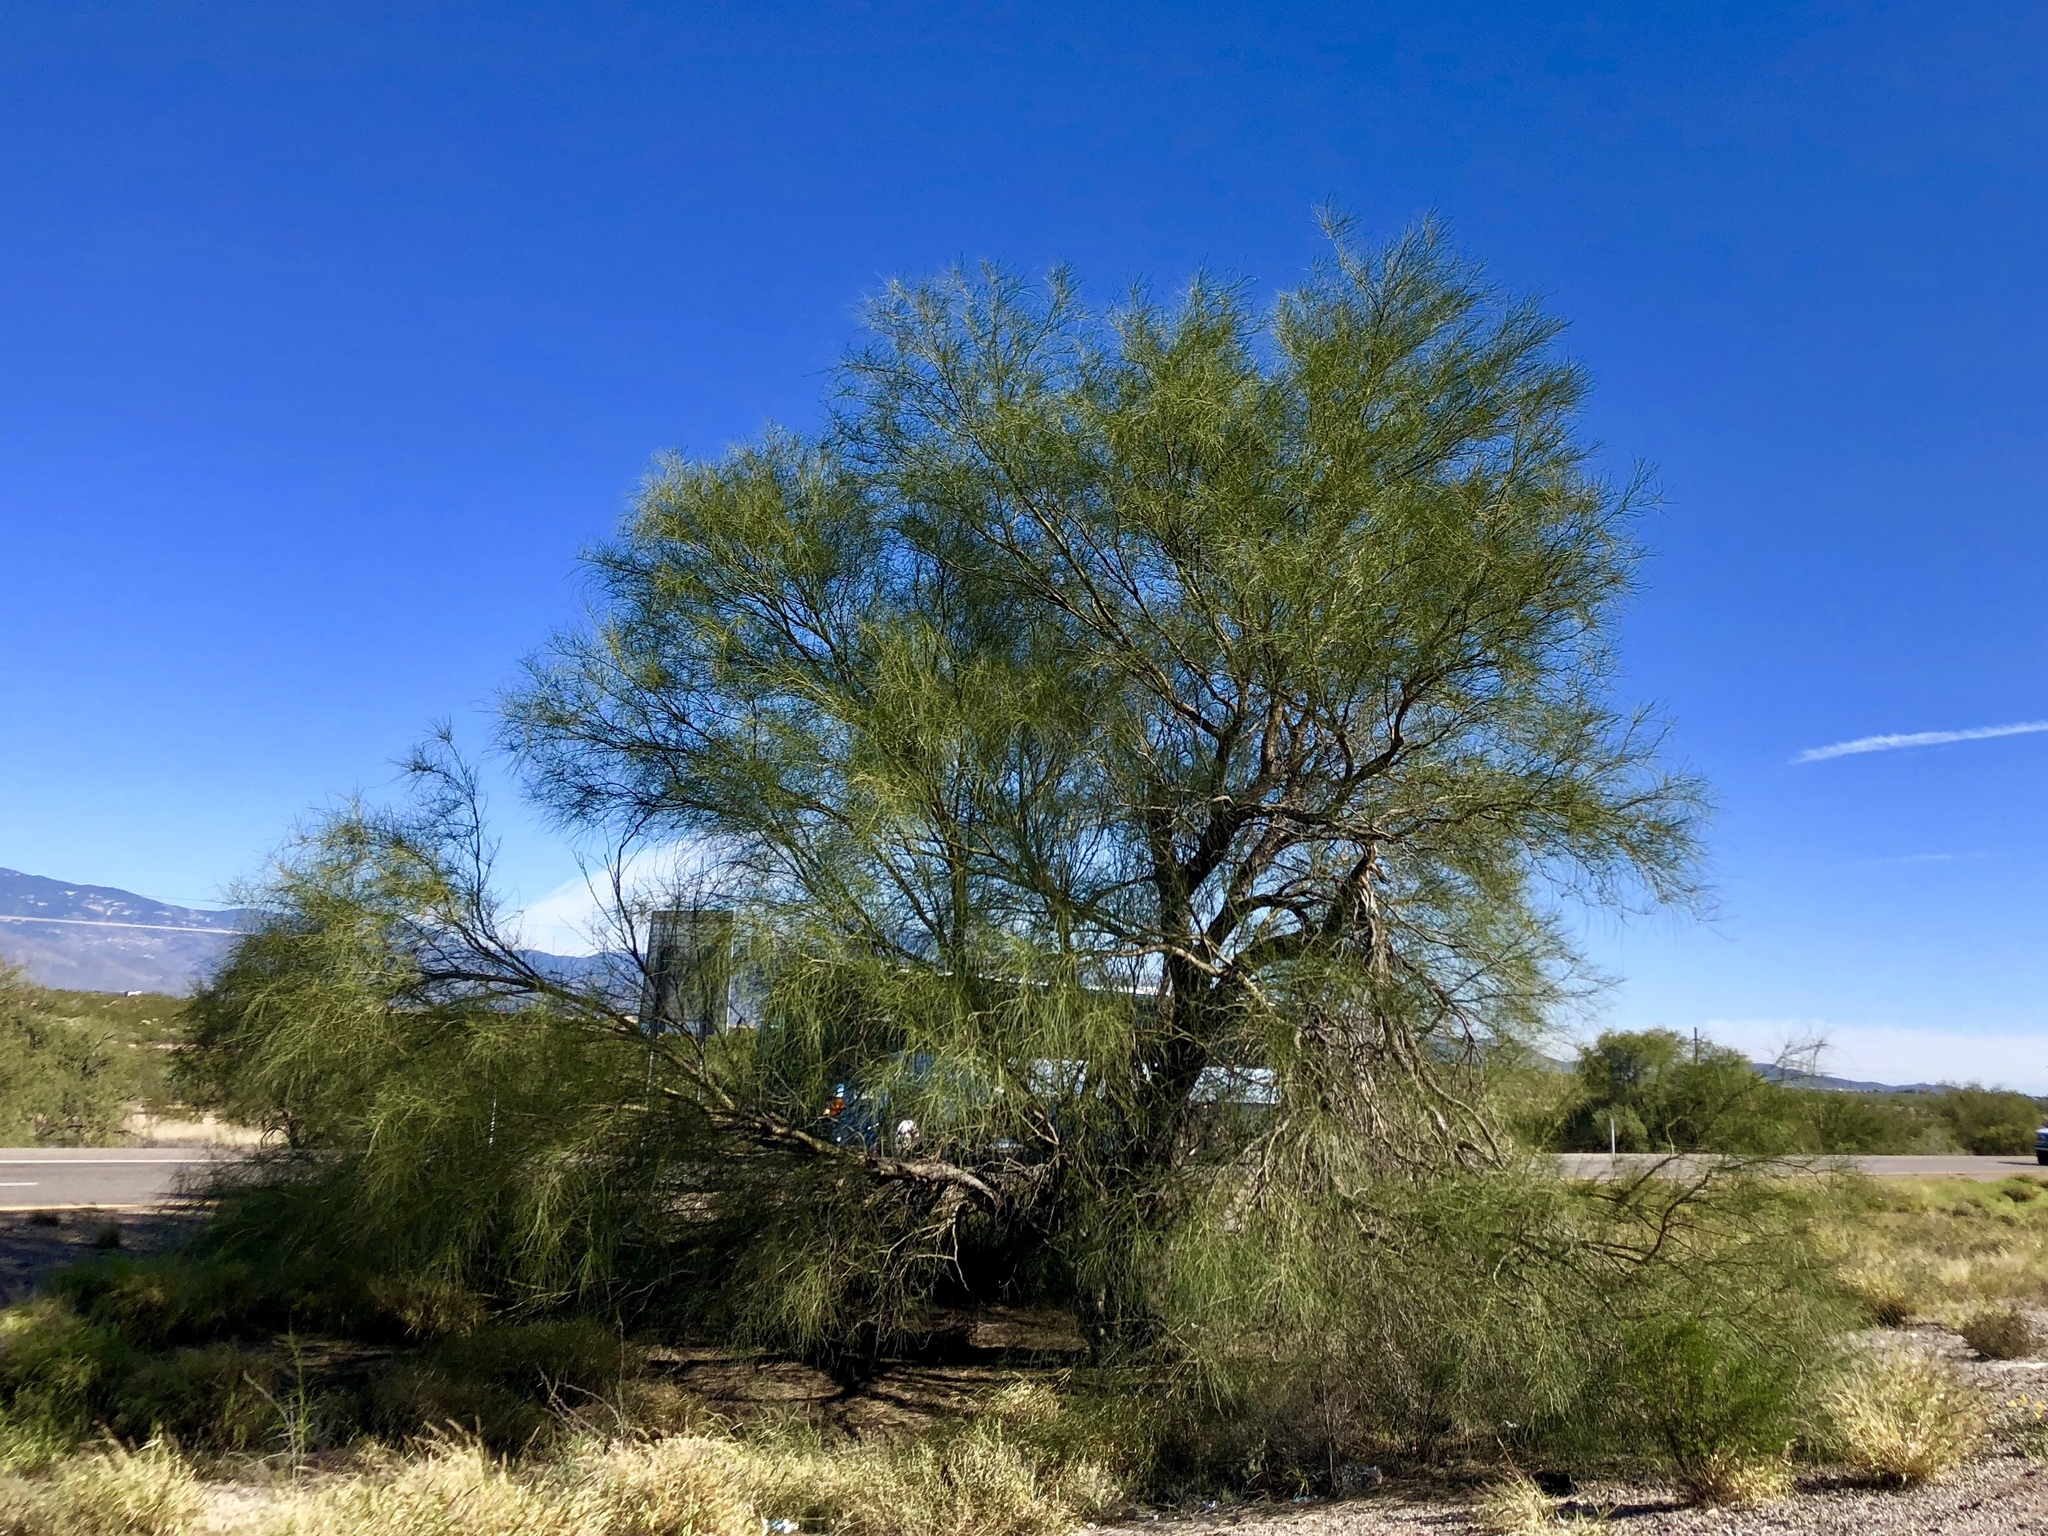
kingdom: Plantae
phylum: Tracheophyta
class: Magnoliopsida
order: Fabales
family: Fabaceae
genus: Parkinsonia
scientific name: Parkinsonia microphylla
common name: Yellow paloverde
